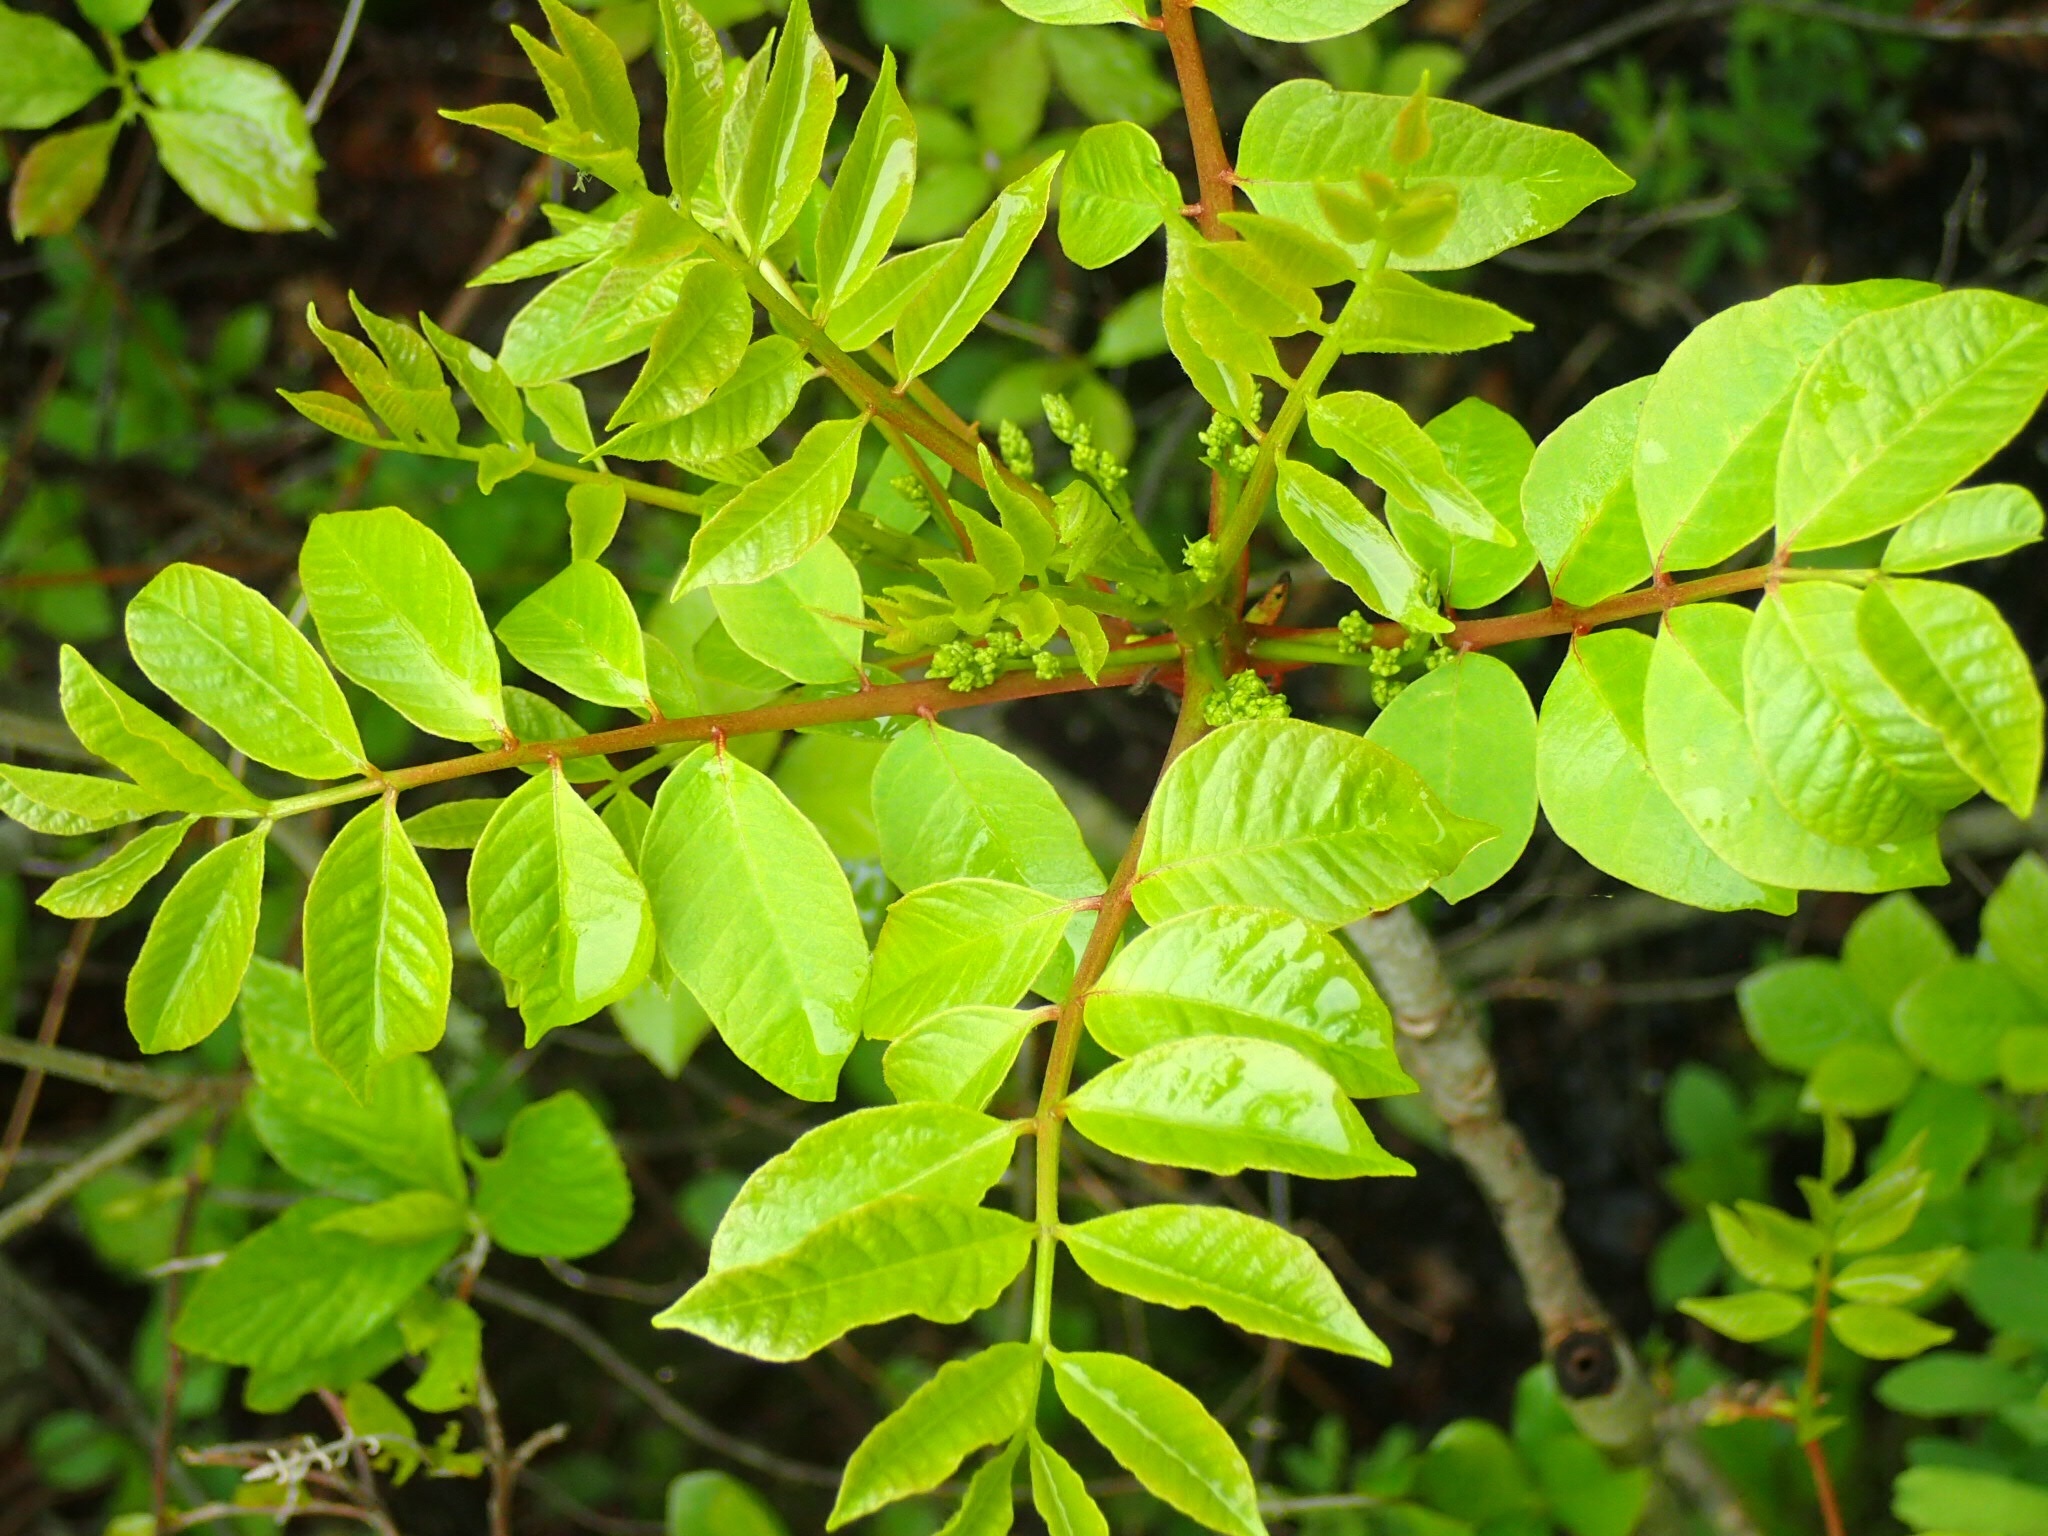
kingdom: Plantae
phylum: Tracheophyta
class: Magnoliopsida
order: Sapindales
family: Anacardiaceae
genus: Toxicodendron
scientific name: Toxicodendron vernix
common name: Poison sumac
